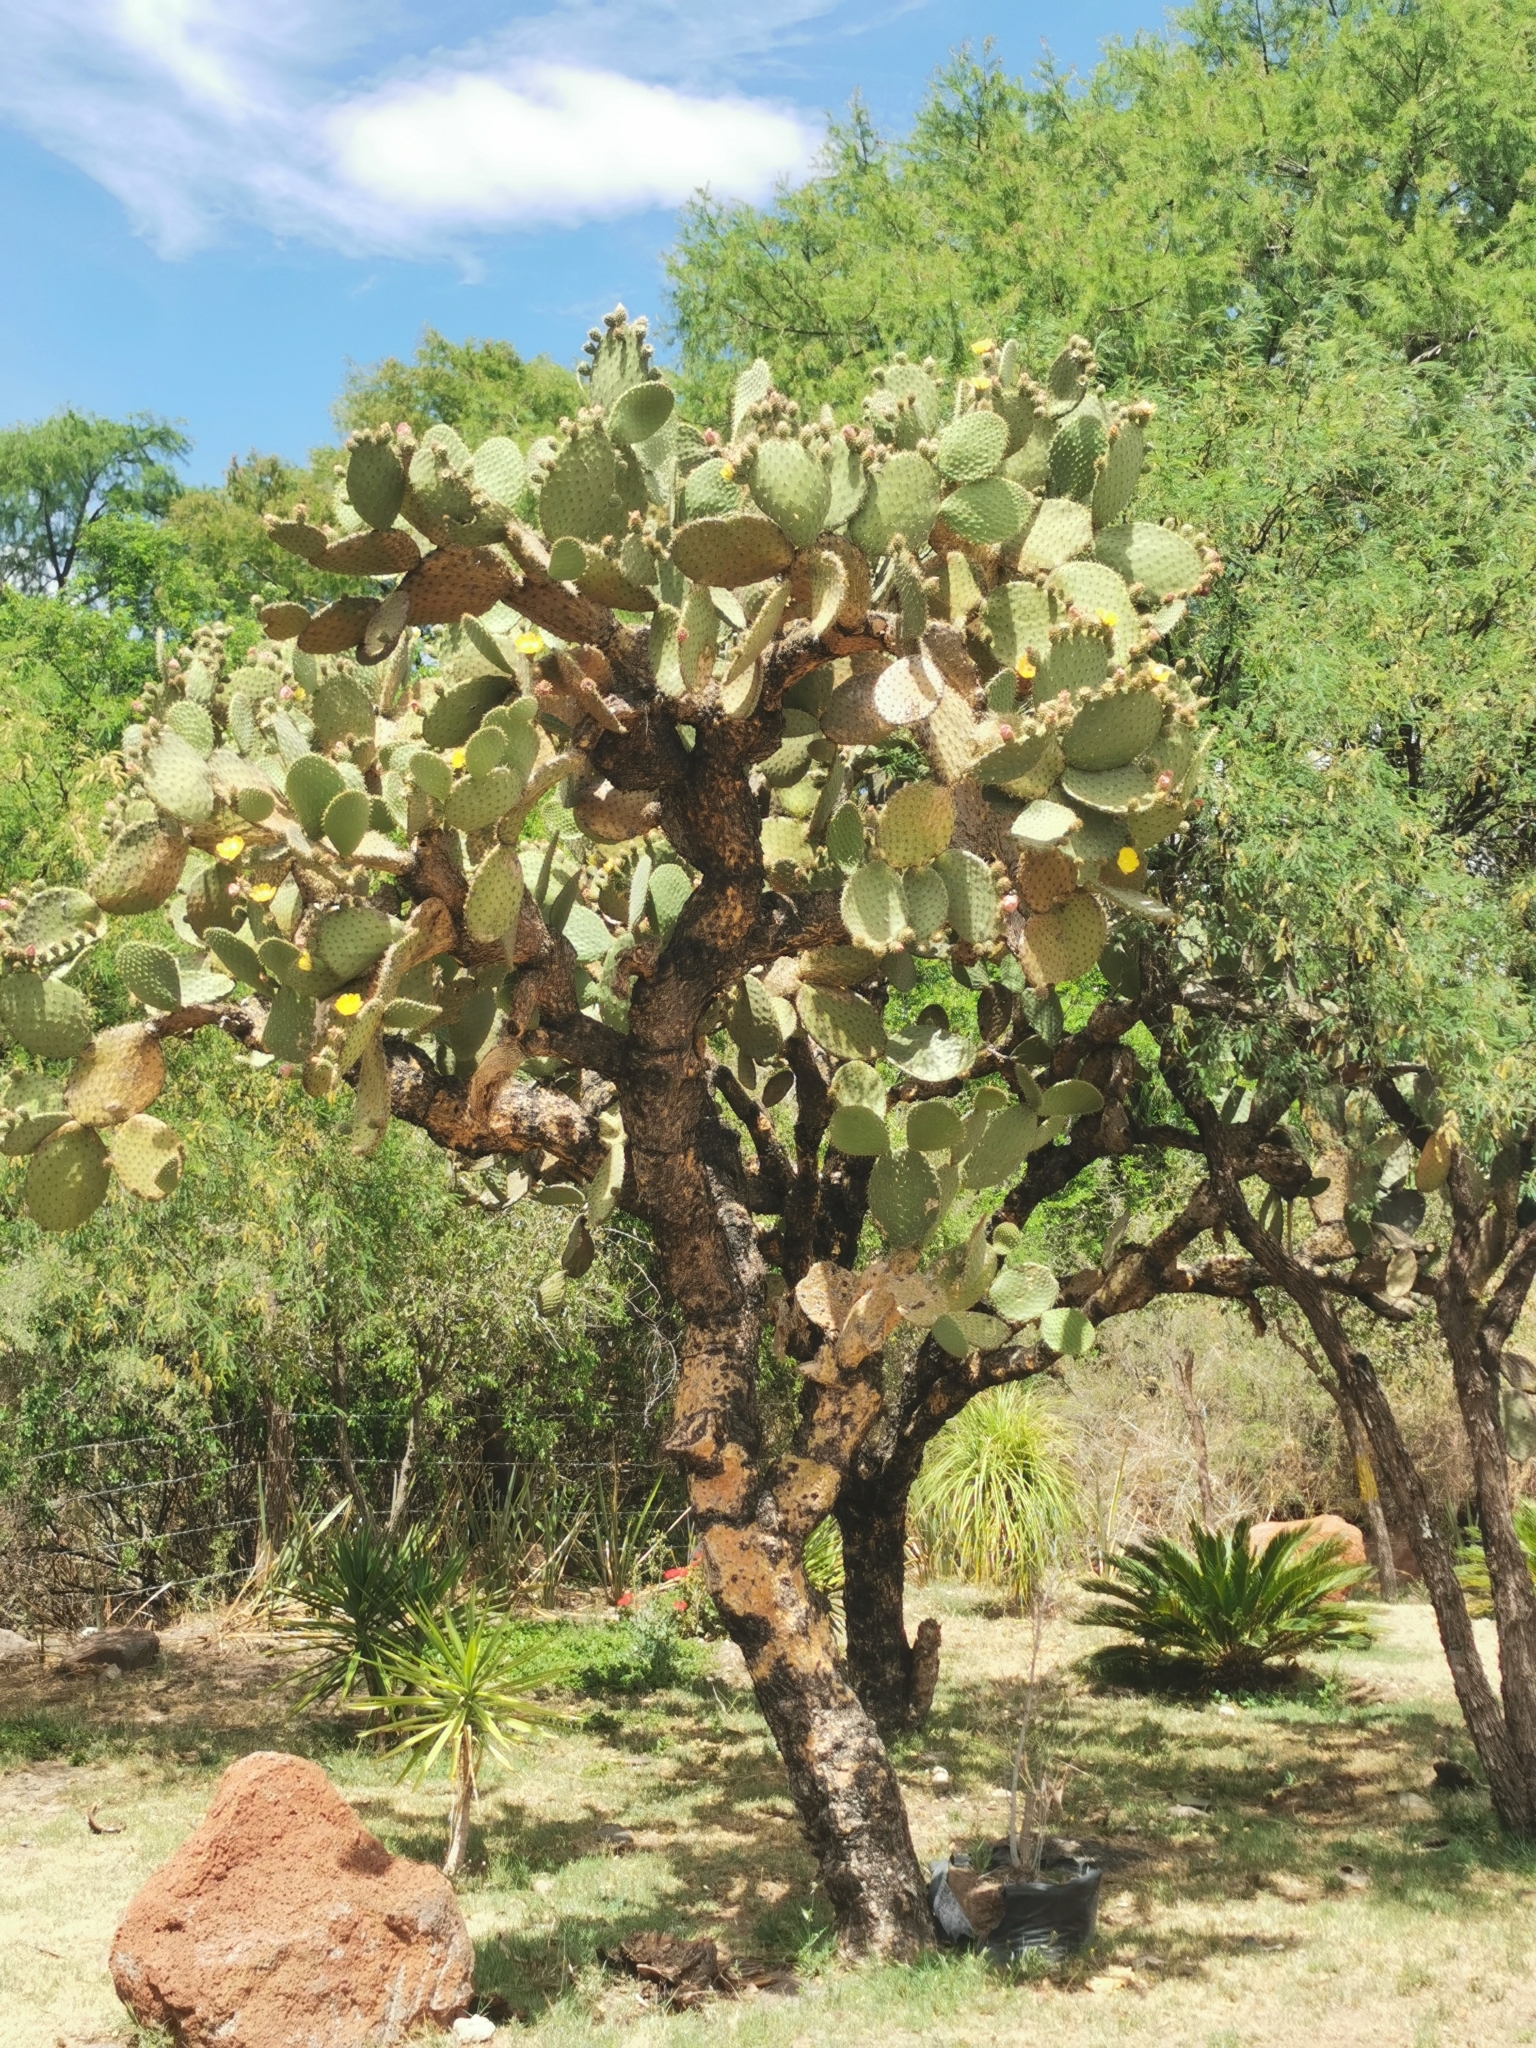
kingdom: Plantae
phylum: Tracheophyta
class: Magnoliopsida
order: Caryophyllales
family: Cactaceae
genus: Opuntia
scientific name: Opuntia leucotricha
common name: Arborescent pricklypear
